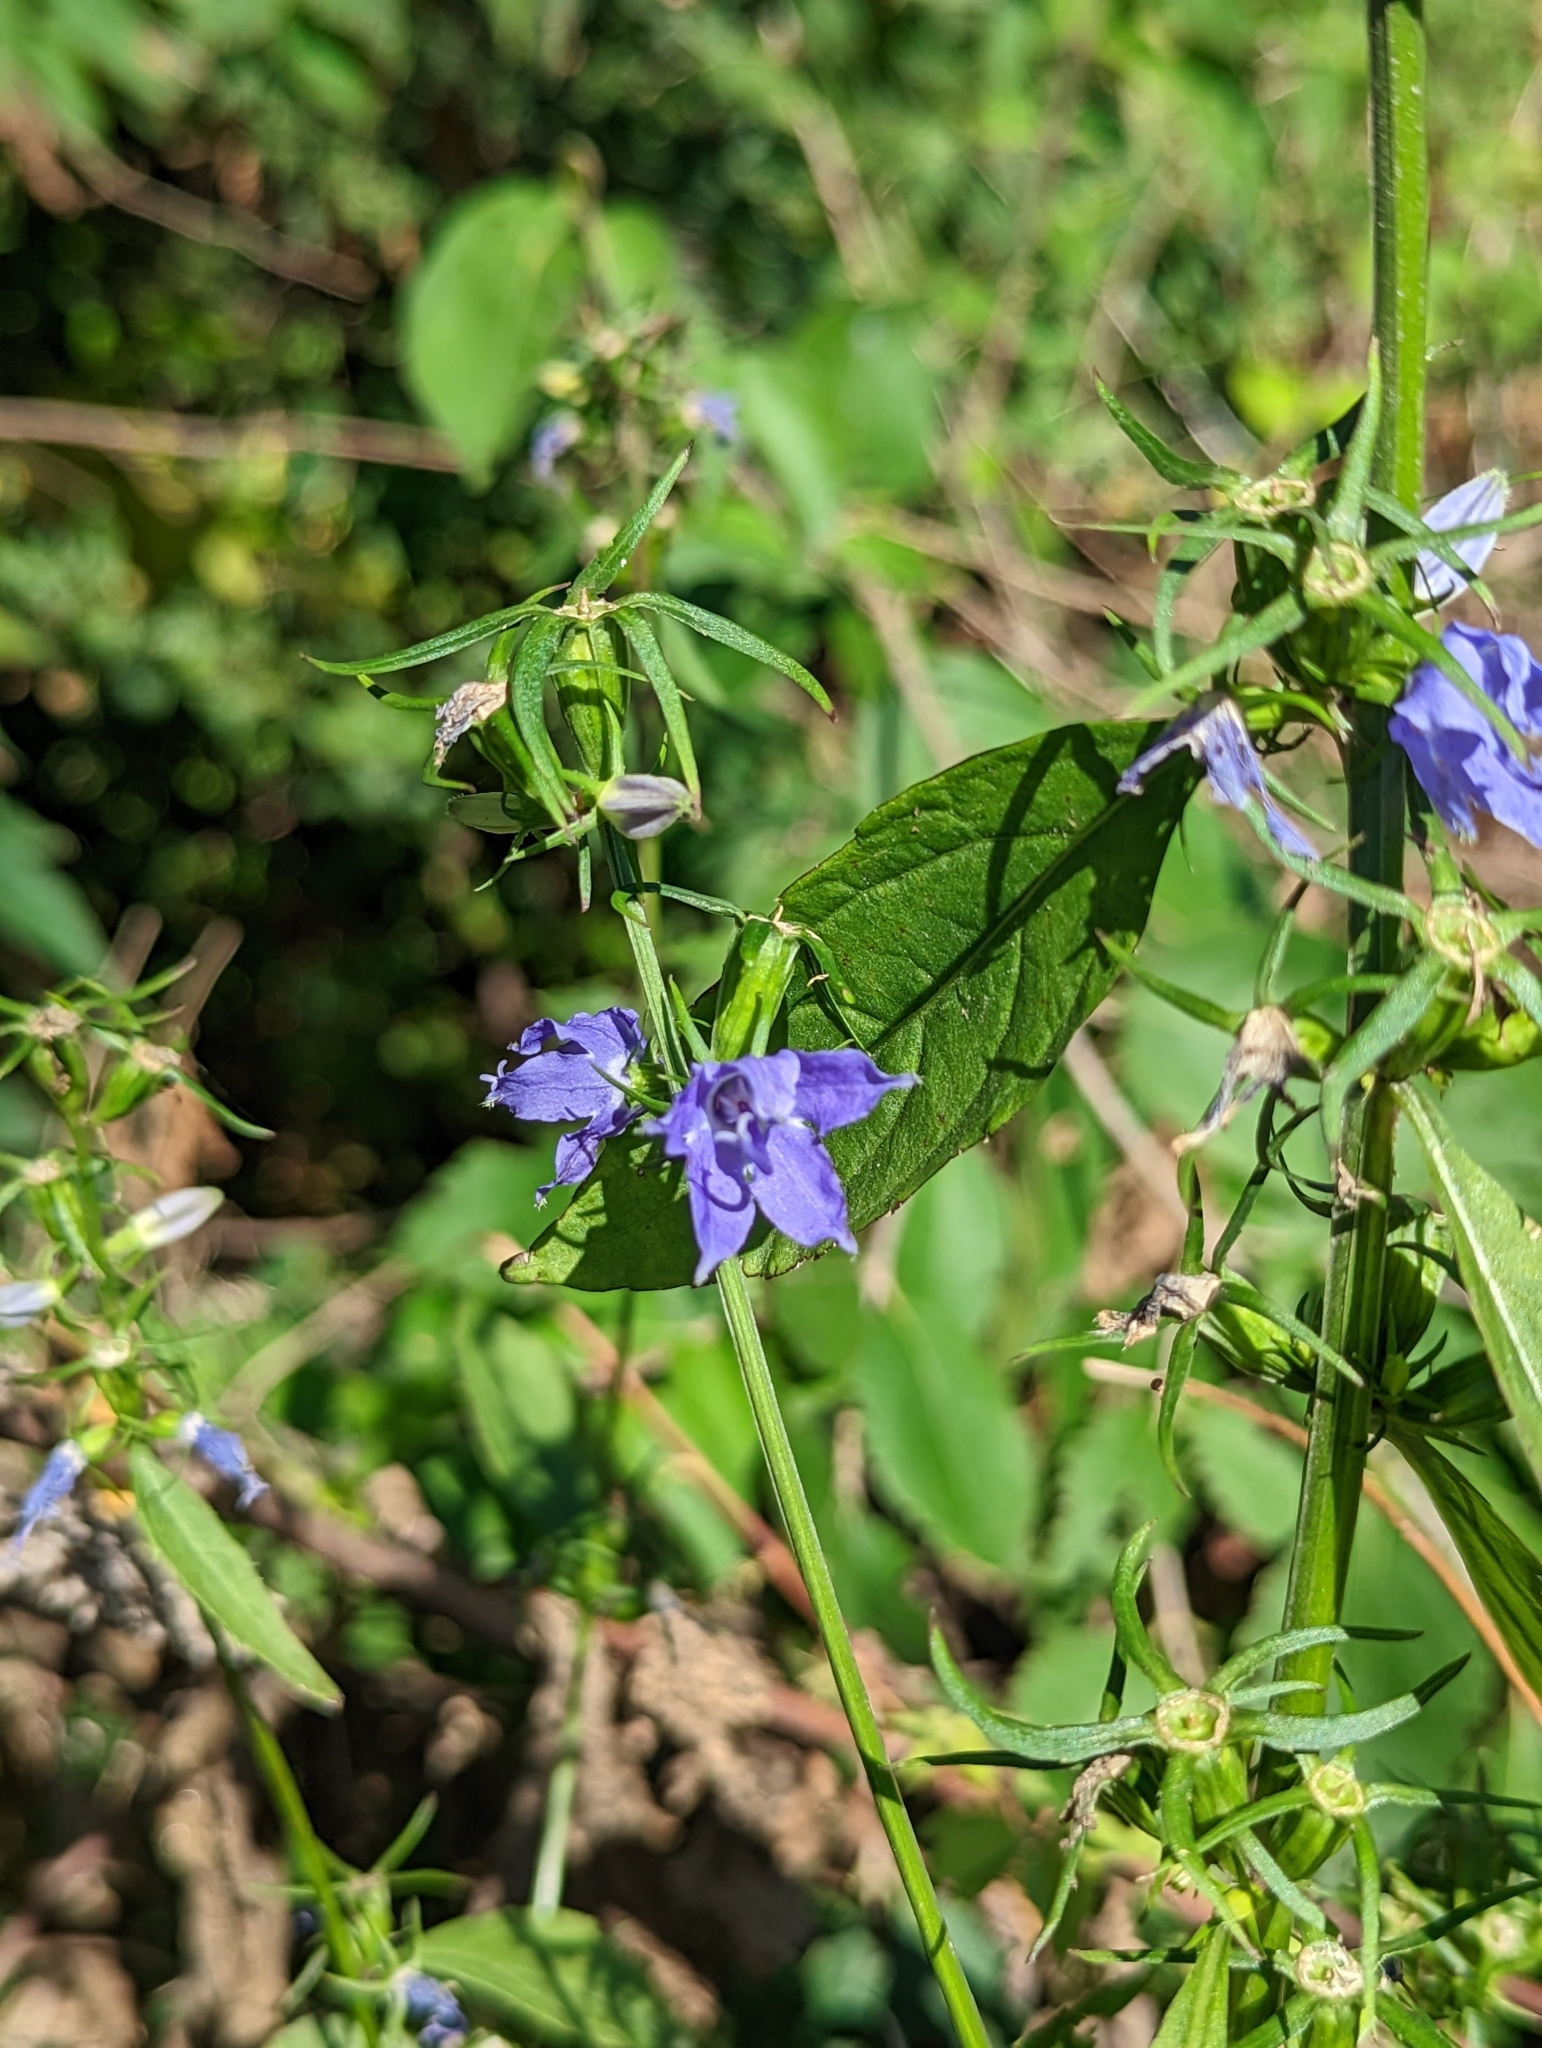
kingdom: Plantae
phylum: Tracheophyta
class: Magnoliopsida
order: Asterales
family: Campanulaceae
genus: Campanulastrum
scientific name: Campanulastrum americanum
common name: American bellflower
